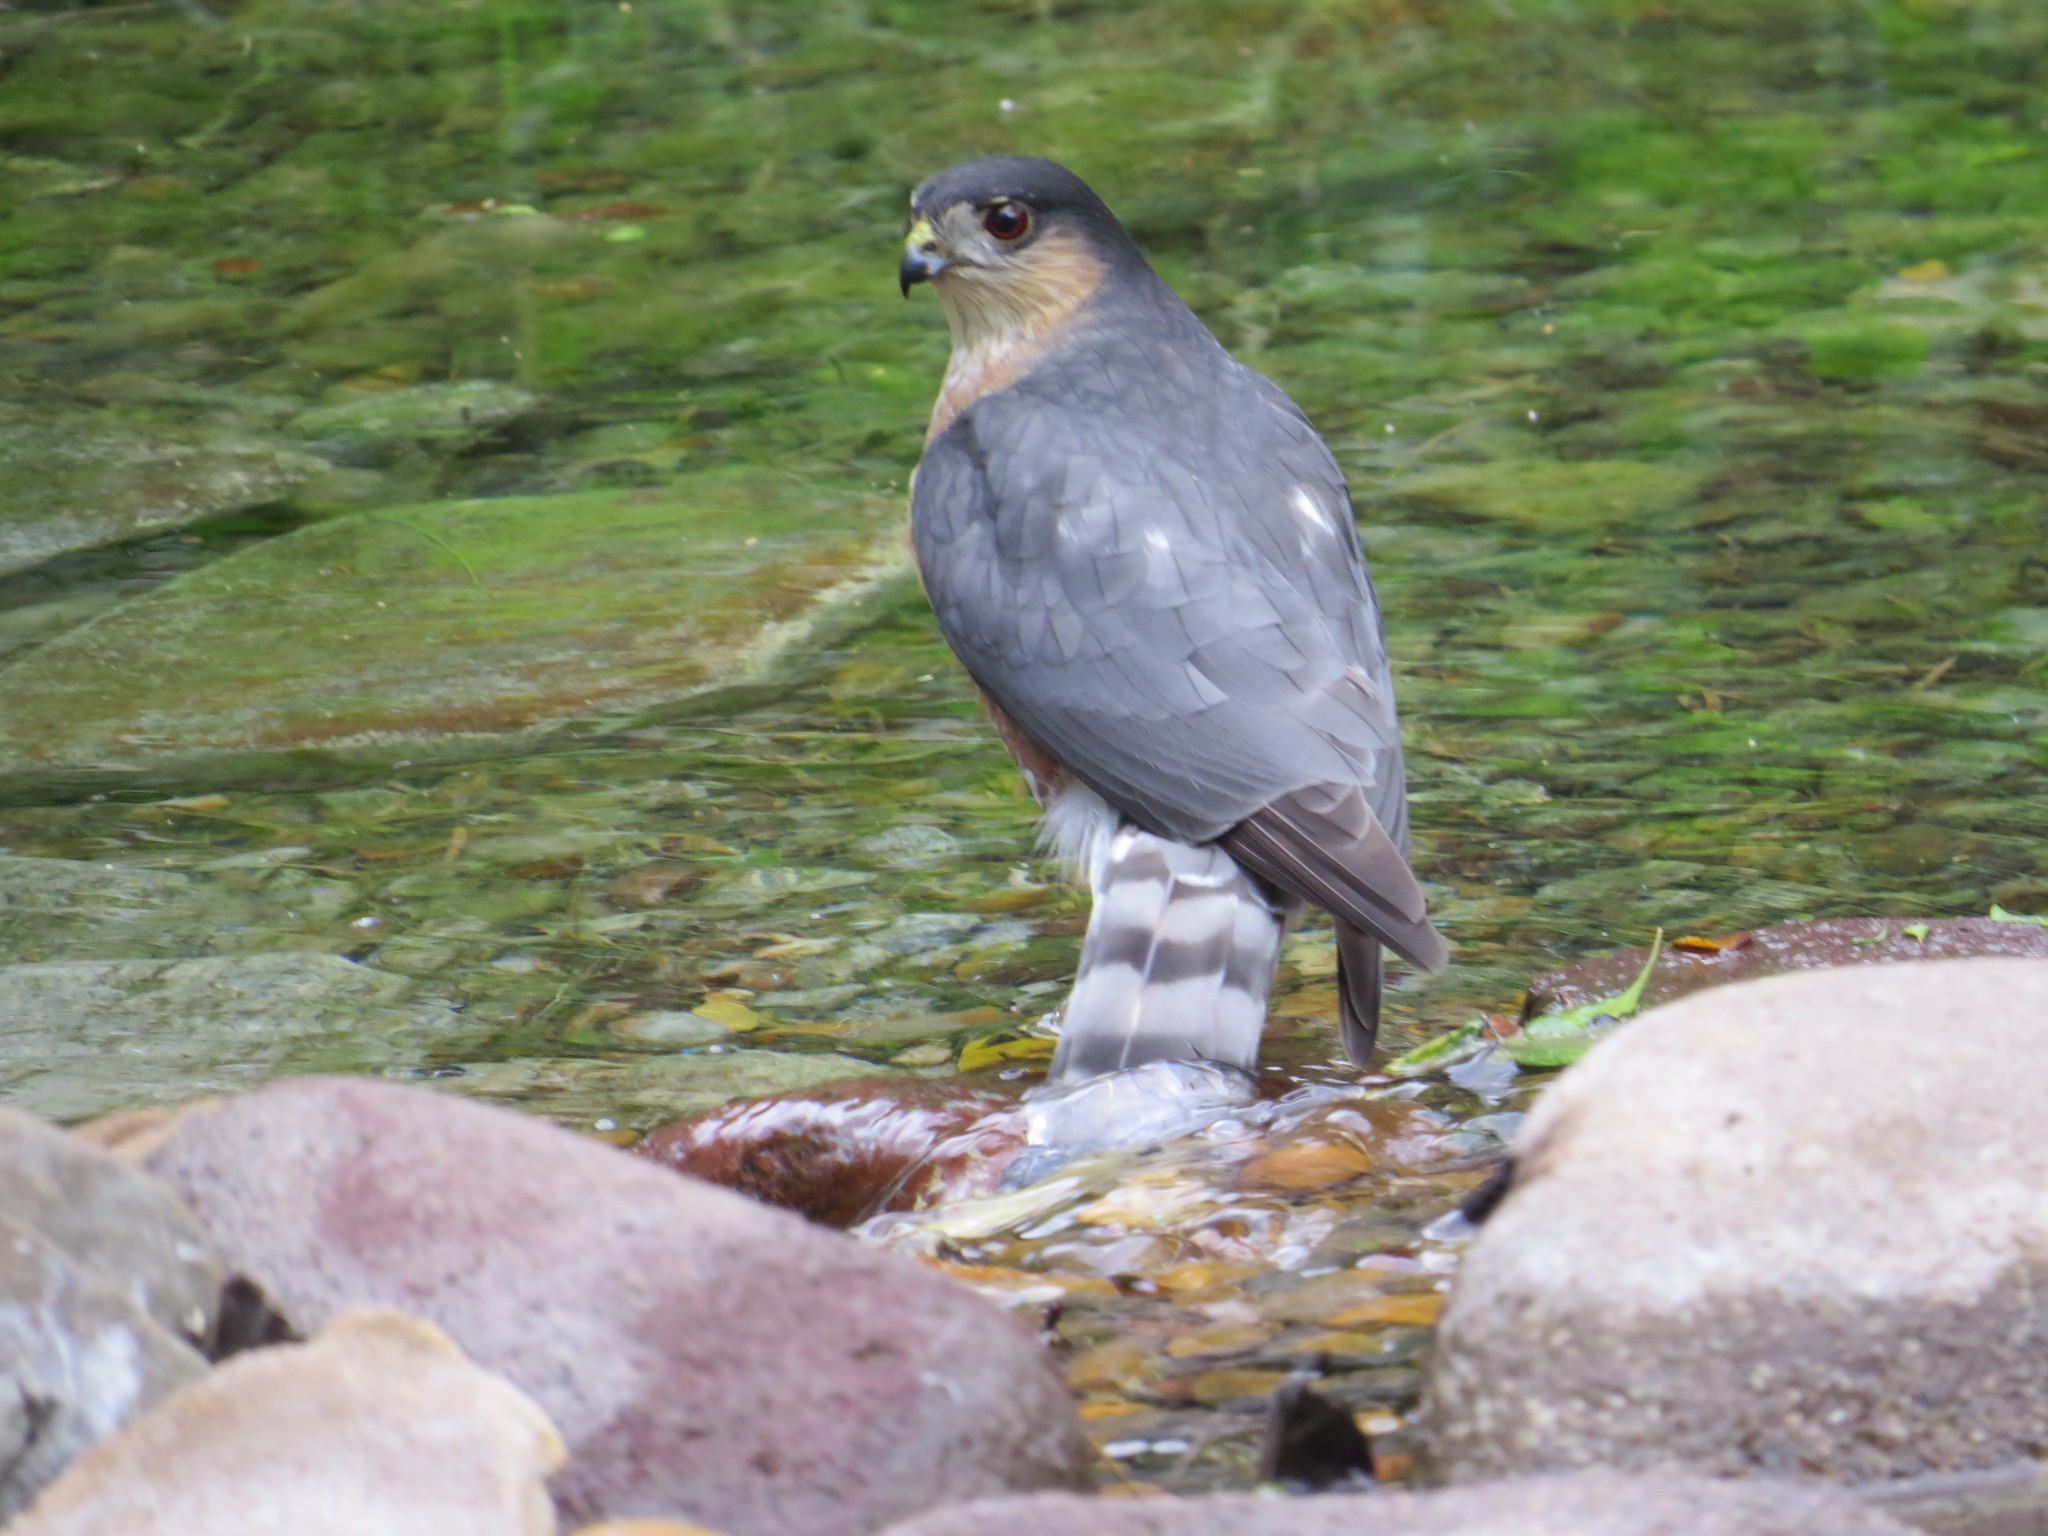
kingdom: Animalia
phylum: Chordata
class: Aves
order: Accipitriformes
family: Accipitridae
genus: Accipiter
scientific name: Accipiter striatus
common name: Sharp-shinned hawk
